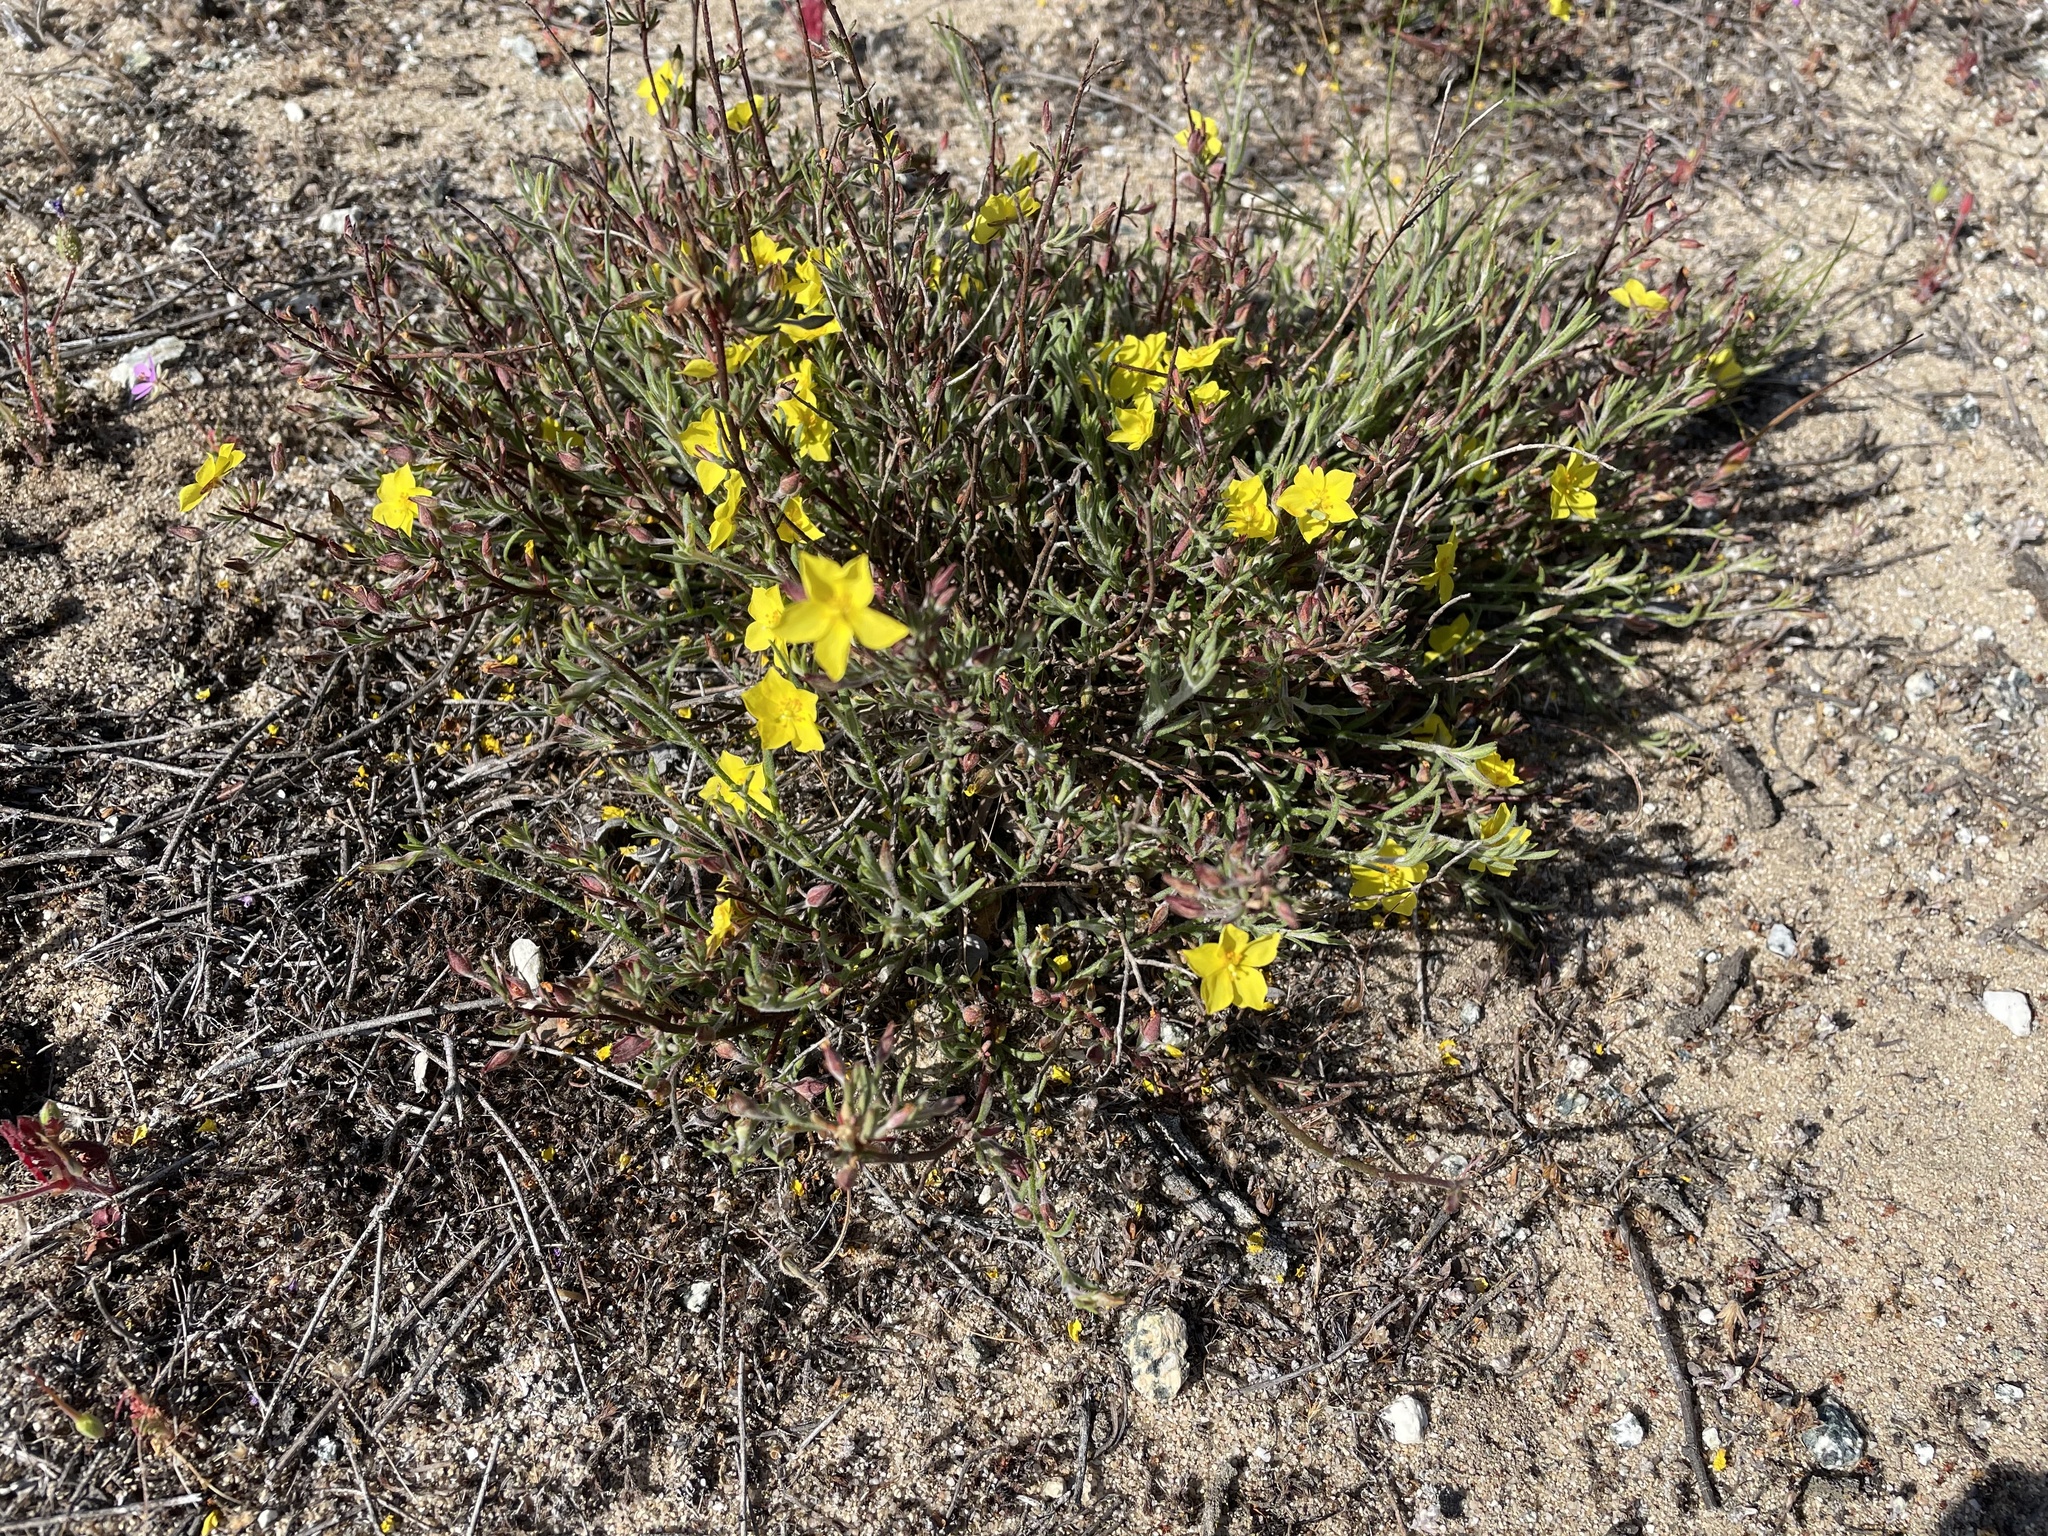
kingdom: Plantae
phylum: Tracheophyta
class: Magnoliopsida
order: Malvales
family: Cistaceae
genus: Crocanthemum
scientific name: Crocanthemum scoparium
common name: Broom-rose
